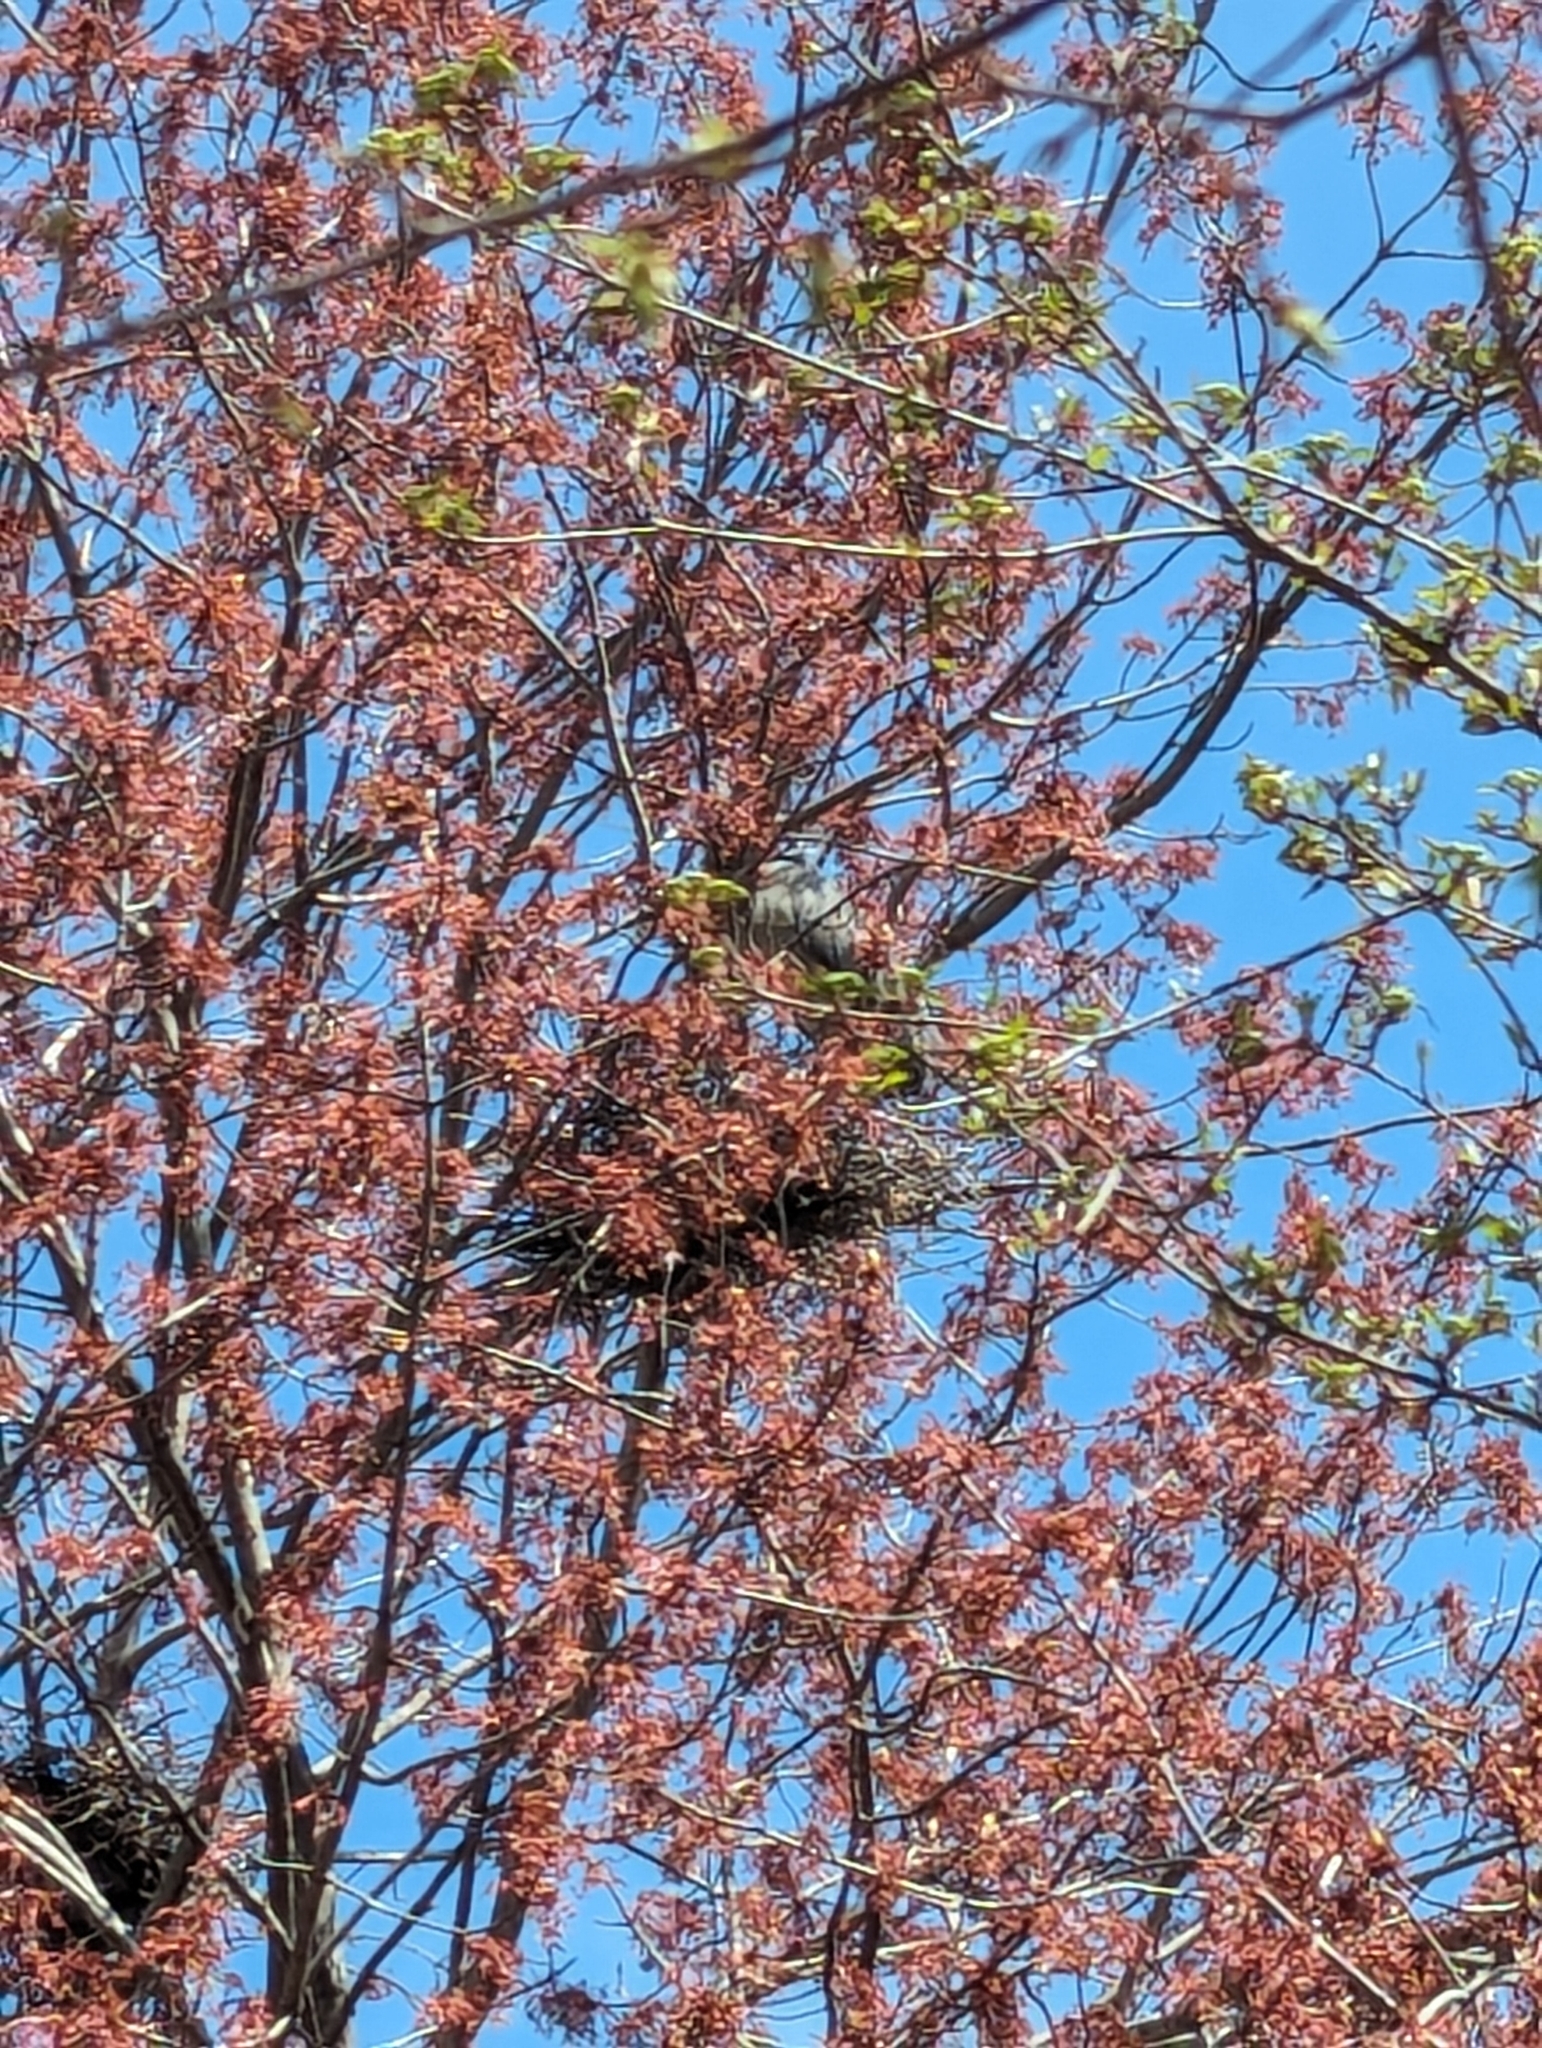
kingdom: Animalia
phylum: Chordata
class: Aves
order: Pelecaniformes
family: Ardeidae
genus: Nyctanassa
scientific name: Nyctanassa violacea
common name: Yellow-crowned night heron
